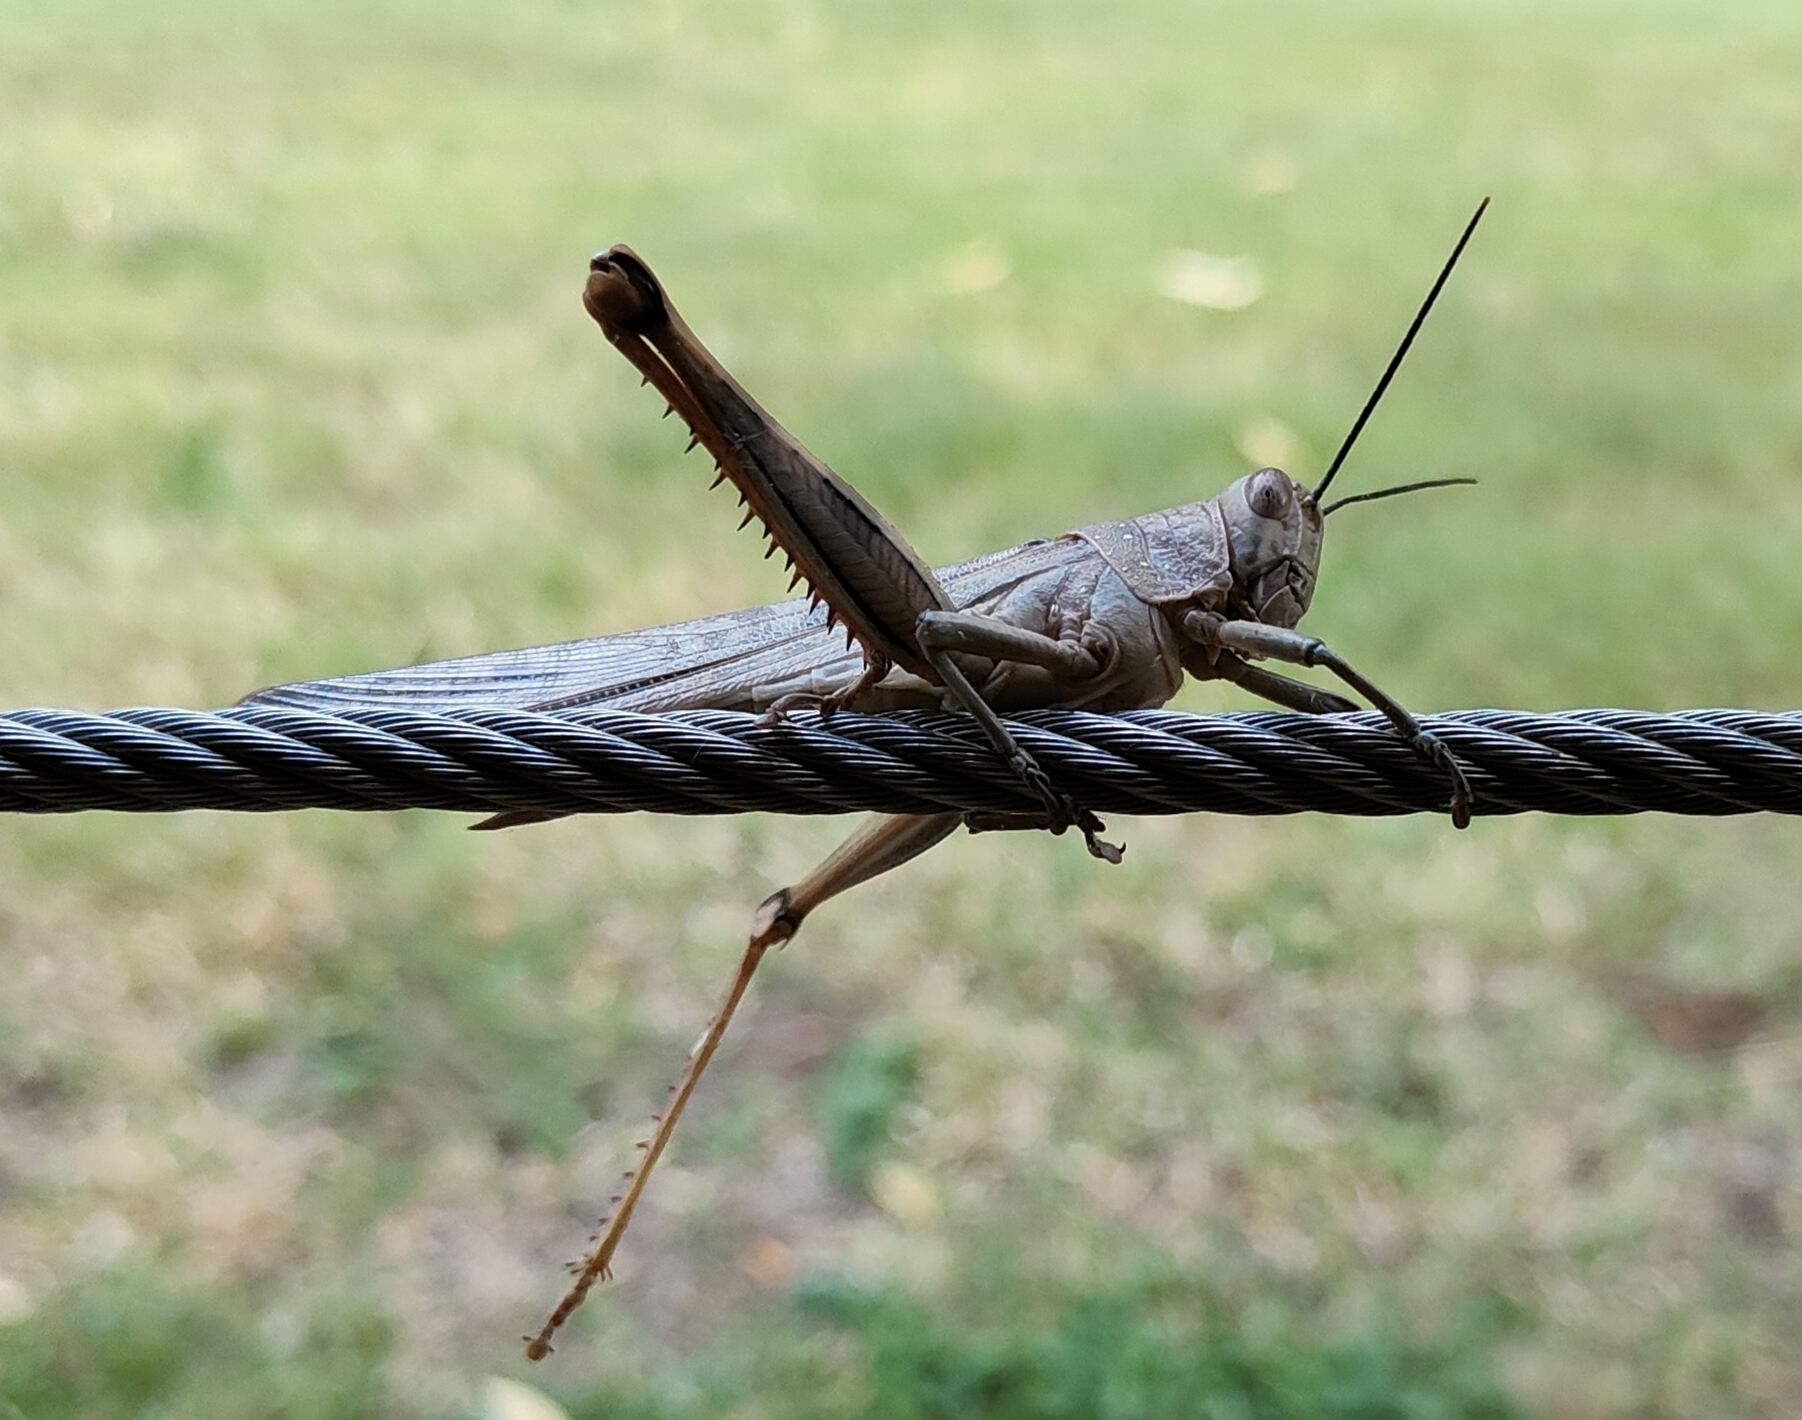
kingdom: Animalia
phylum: Arthropoda
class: Insecta
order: Orthoptera
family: Acrididae
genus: Valanga
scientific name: Valanga irregularis
